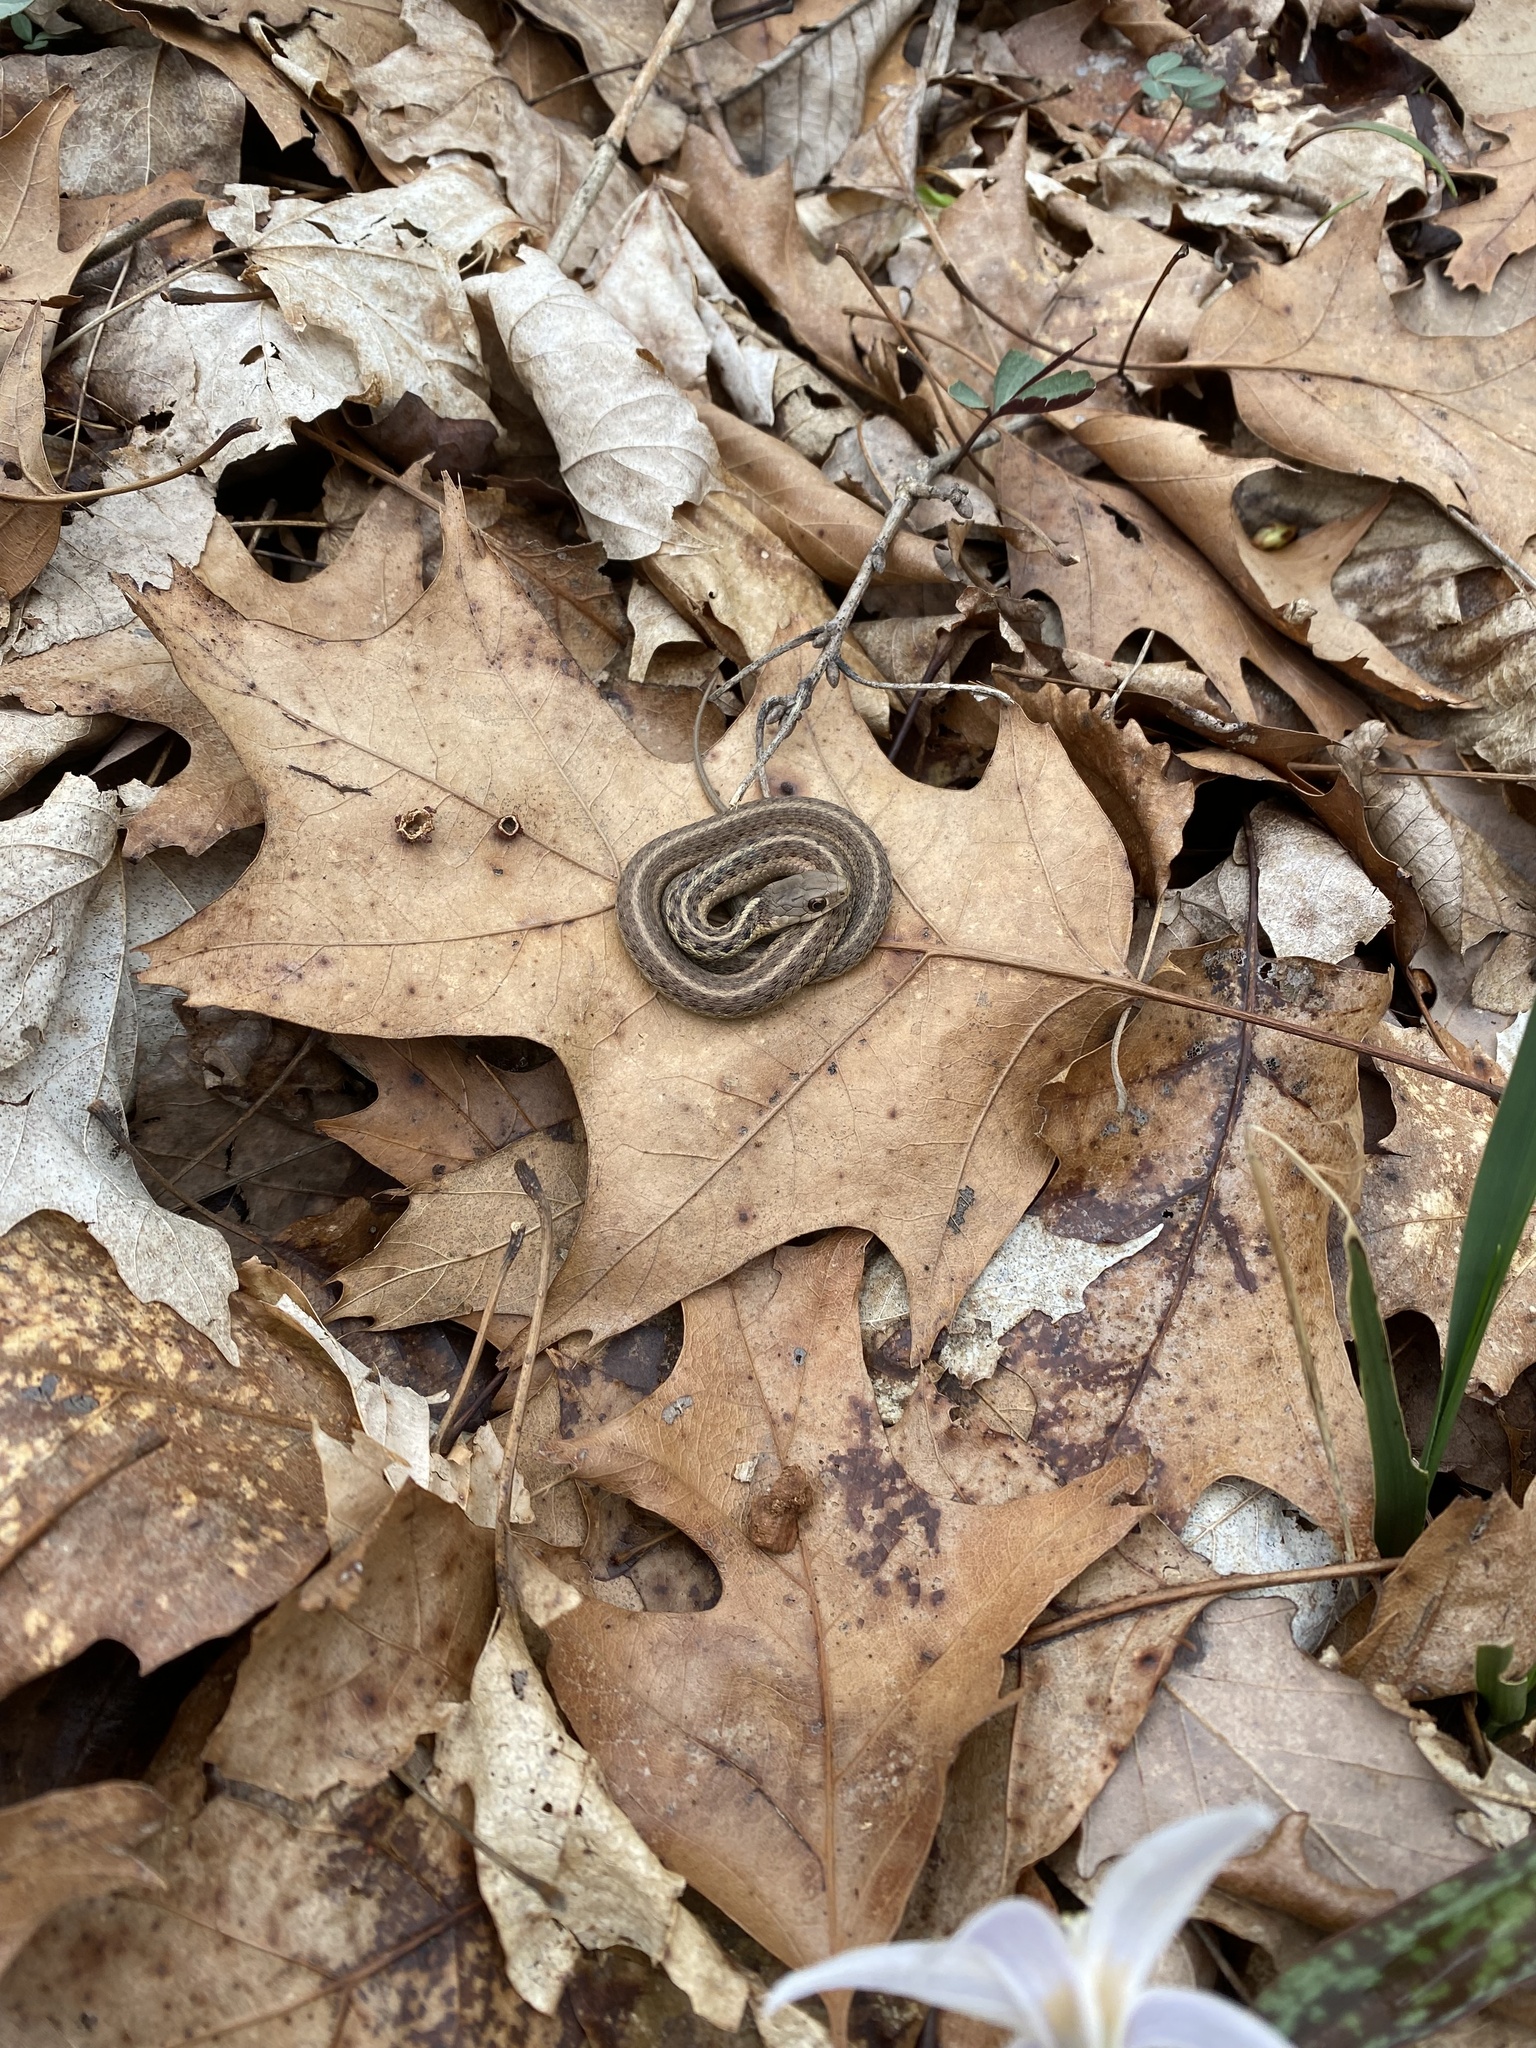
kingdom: Animalia
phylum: Chordata
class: Squamata
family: Colubridae
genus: Thamnophis
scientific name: Thamnophis sirtalis
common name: Common garter snake
